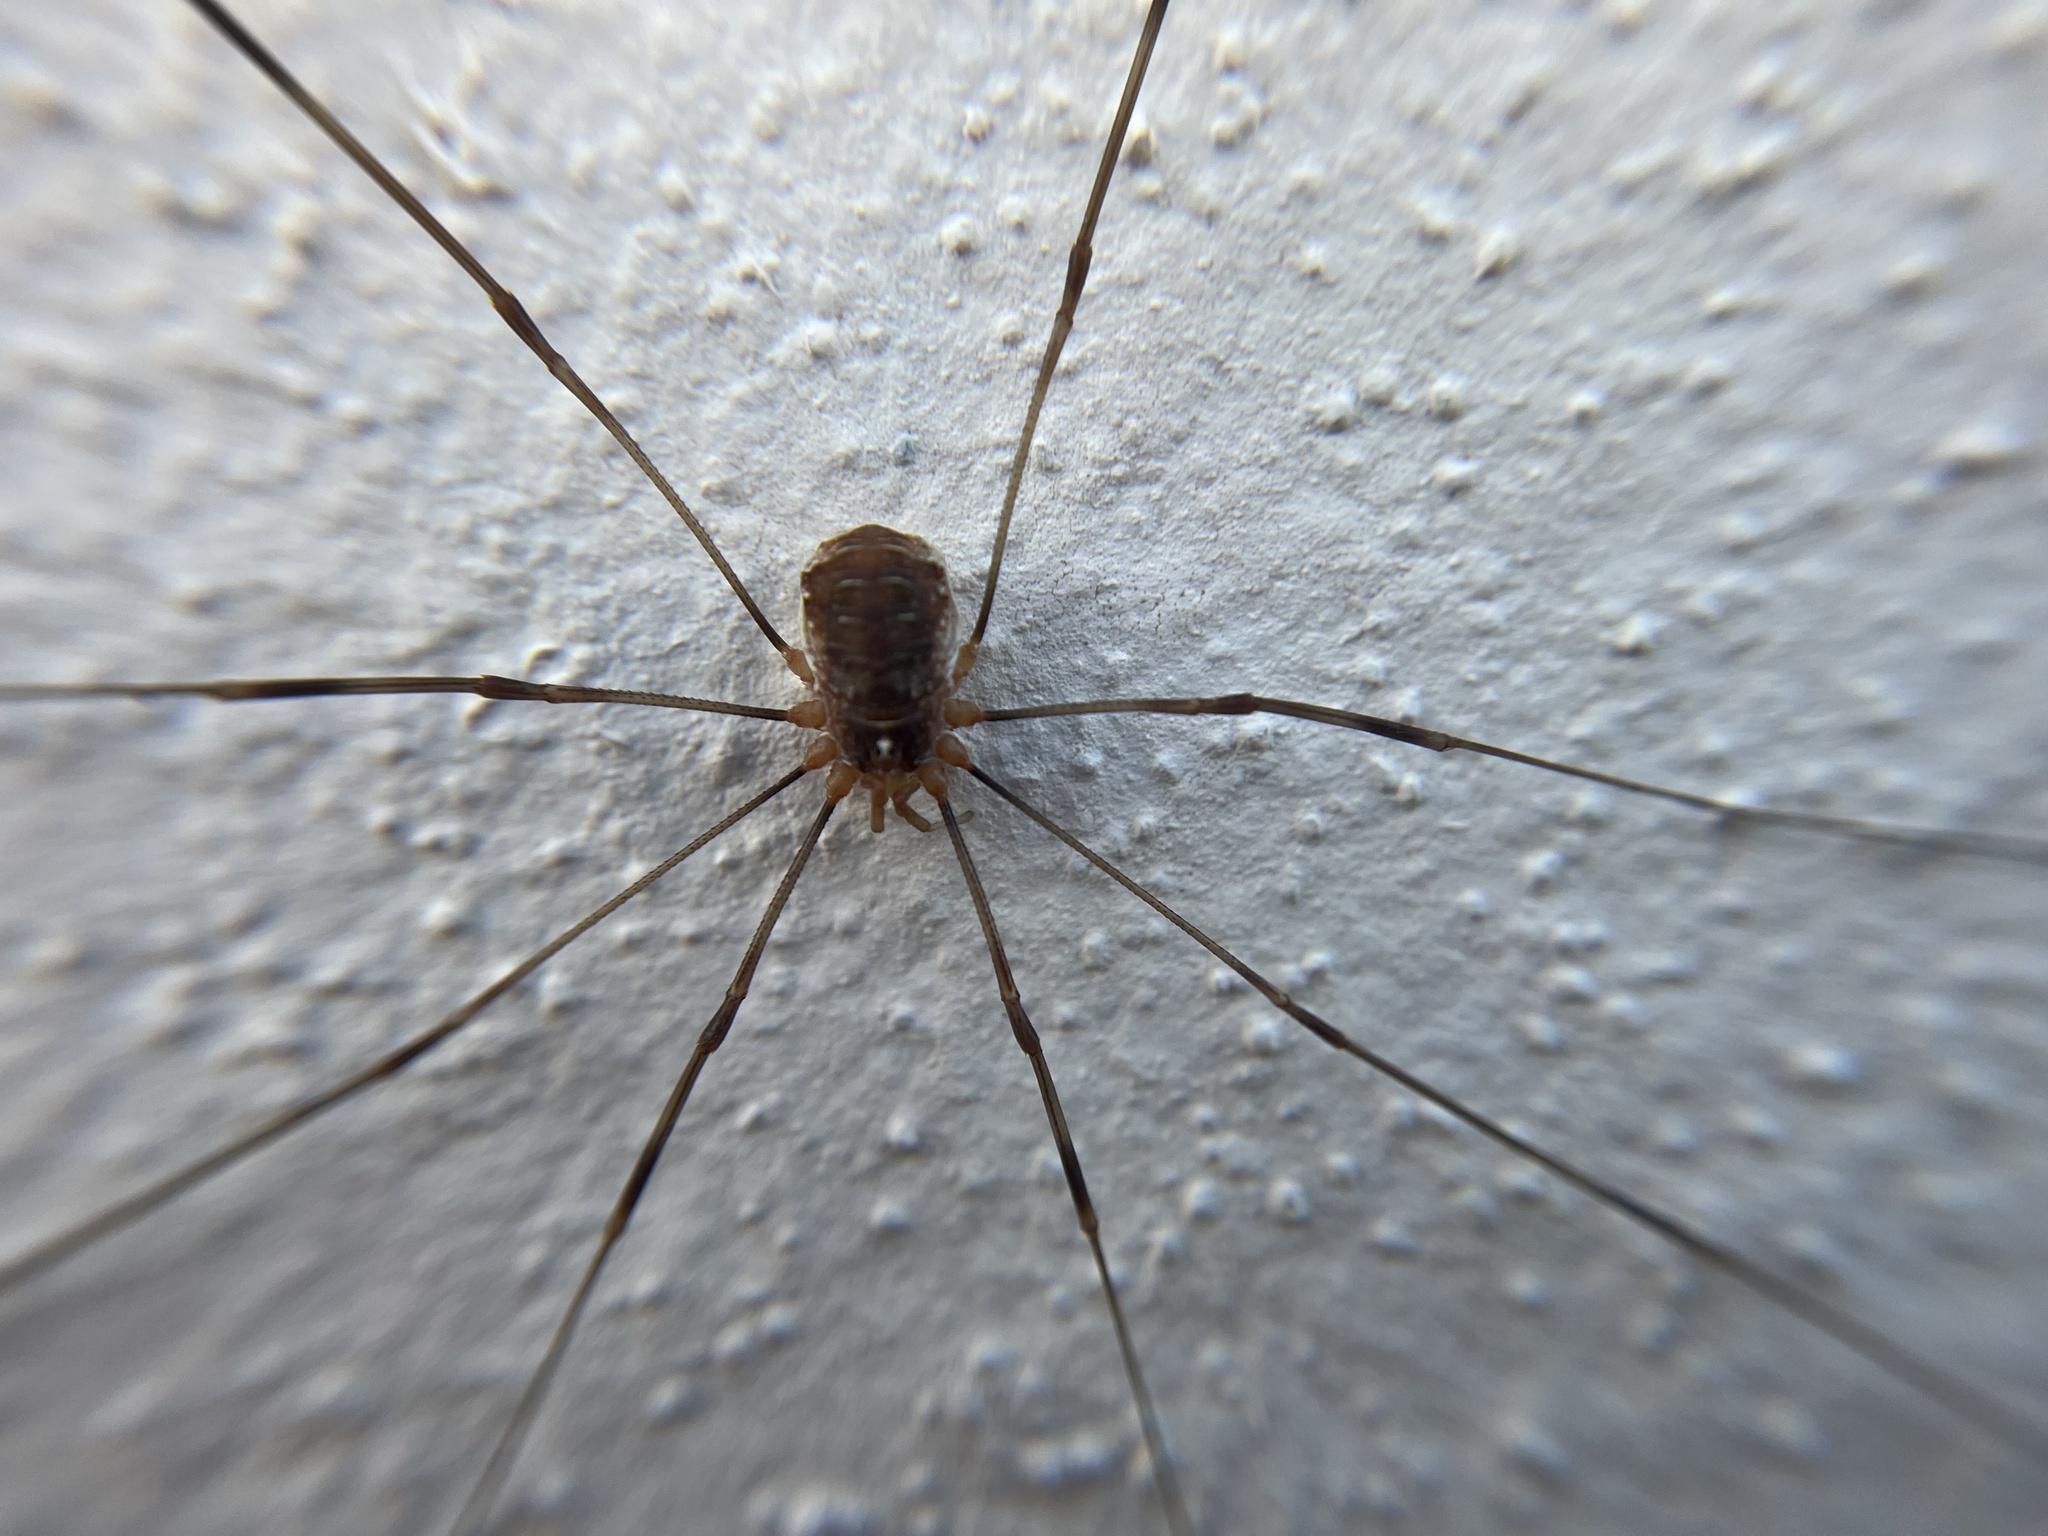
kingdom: Animalia
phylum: Arthropoda
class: Arachnida
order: Opiliones
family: Phalangiidae
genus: Opilio
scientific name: Opilio canestrinii
